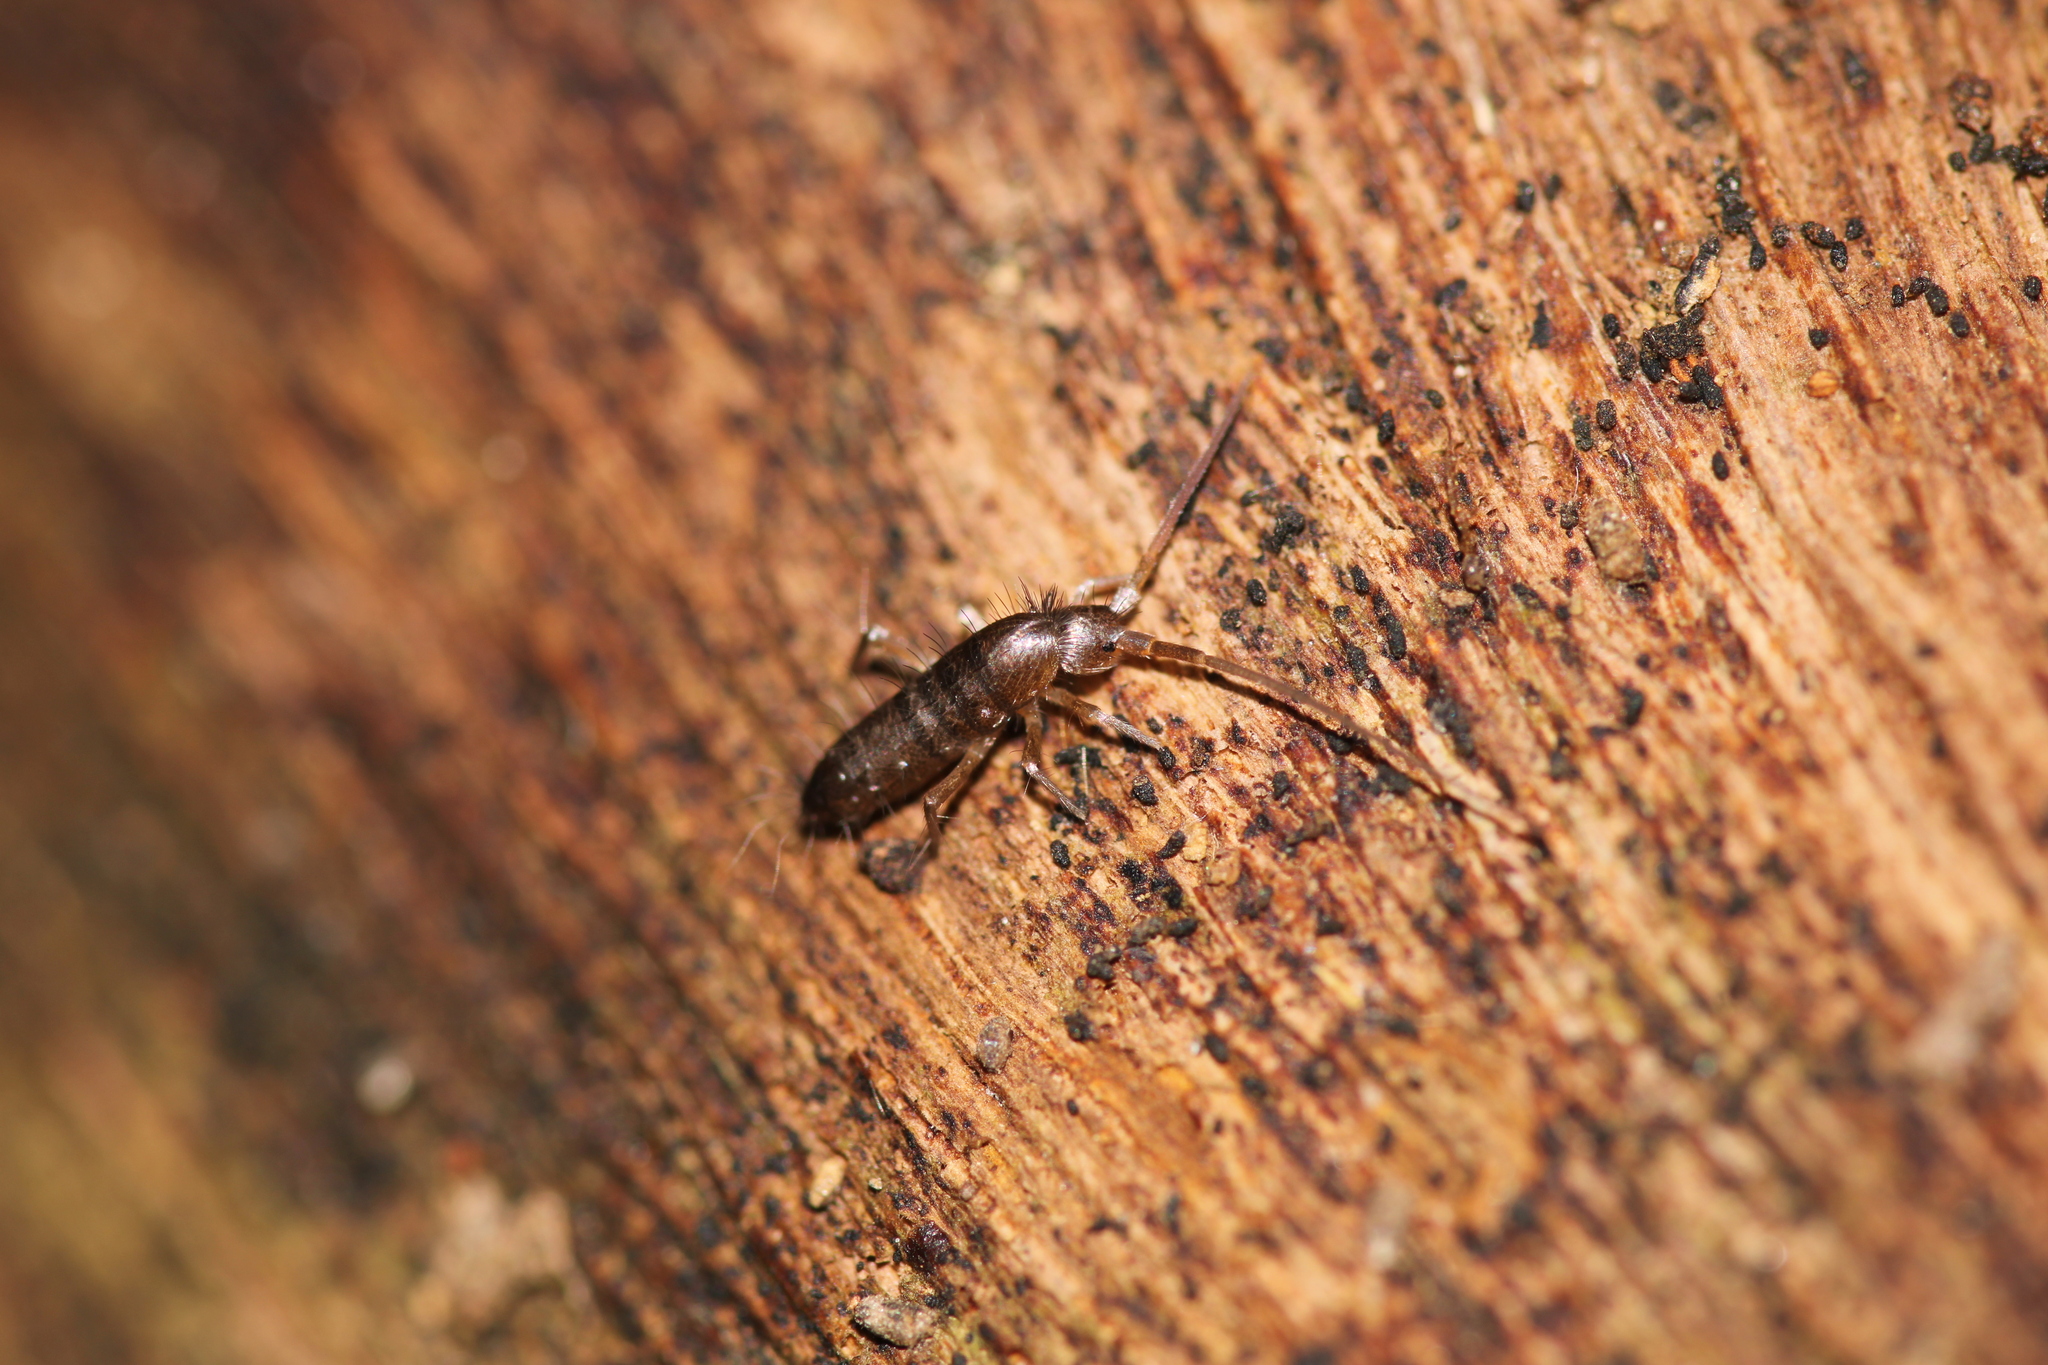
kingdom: Animalia
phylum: Arthropoda
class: Collembola
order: Entomobryomorpha
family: Tomoceridae
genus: Tomocerus
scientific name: Tomocerus minor
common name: Springtail
